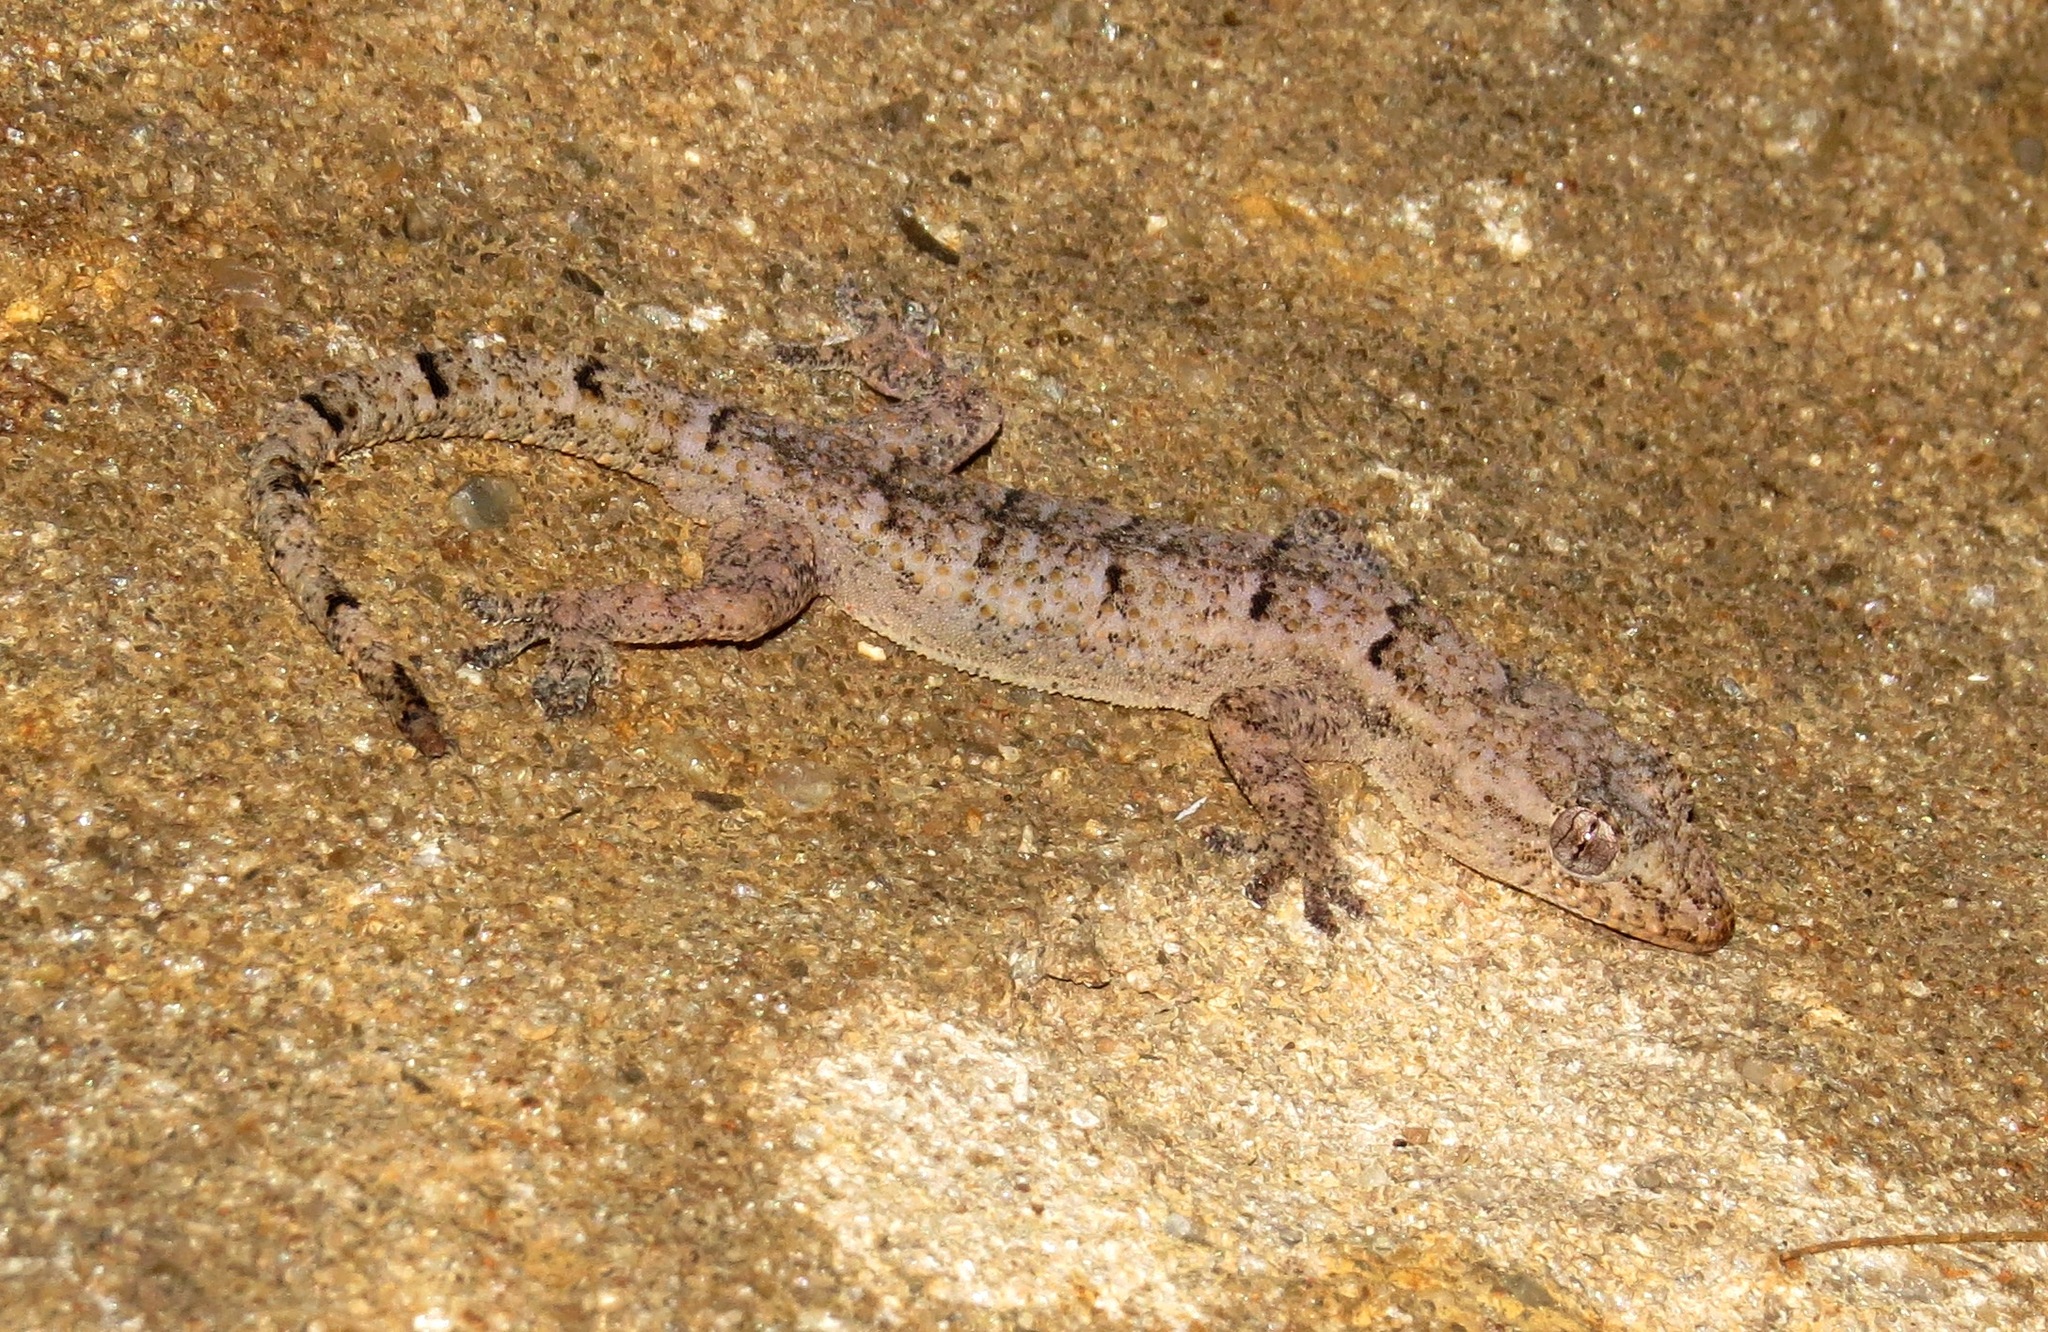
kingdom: Animalia
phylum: Chordata
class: Squamata
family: Gekkonidae
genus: Hemidactylus
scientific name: Hemidactylus mercatorius
